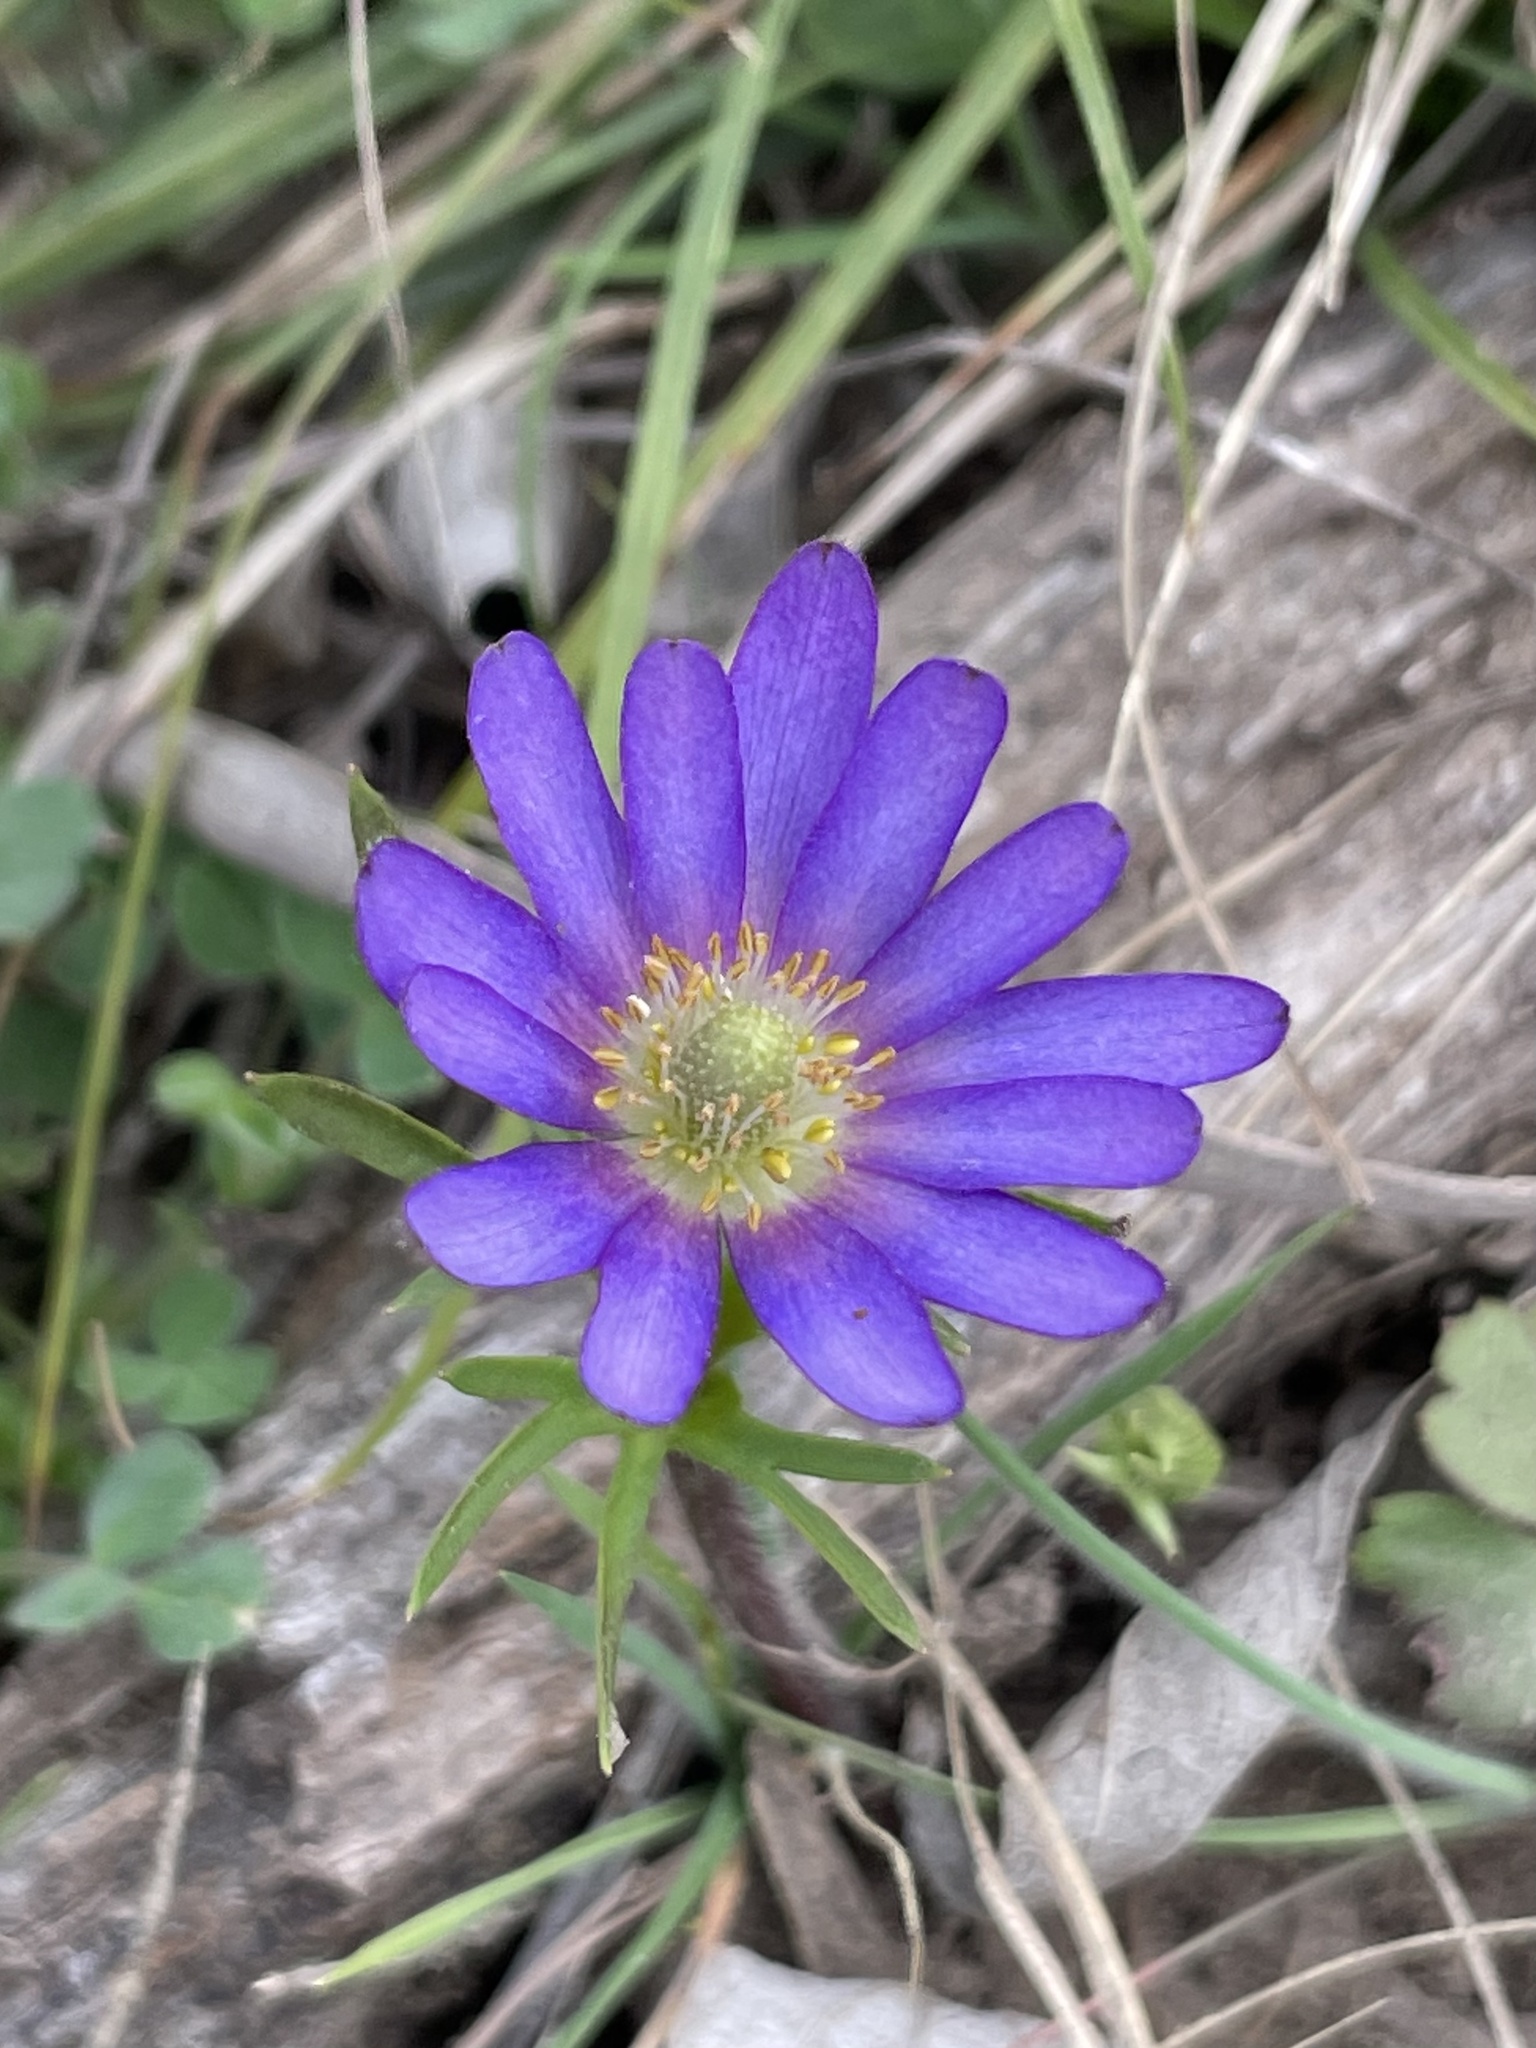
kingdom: Plantae
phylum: Tracheophyta
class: Magnoliopsida
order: Ranunculales
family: Ranunculaceae
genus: Anemone
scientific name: Anemone berlandieri
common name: Ten-petal anemone
